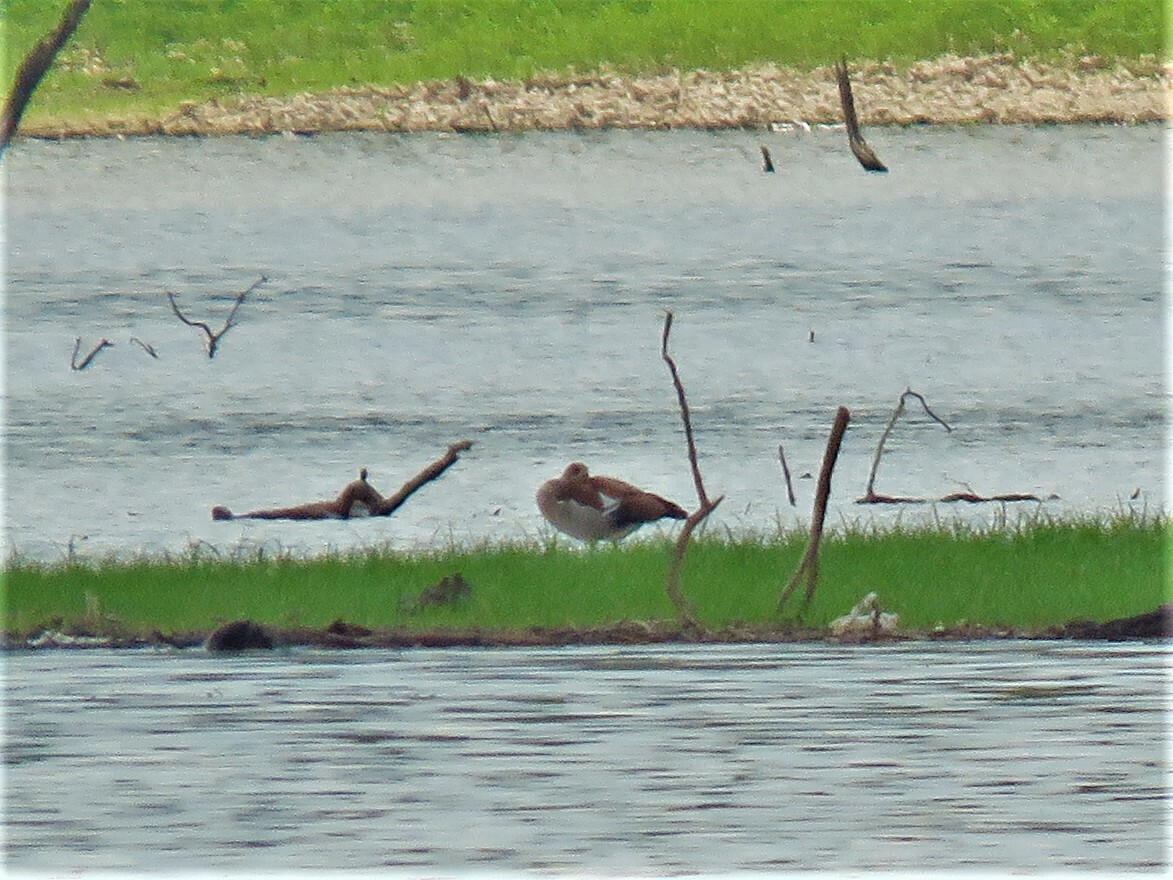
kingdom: Animalia
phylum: Chordata
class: Aves
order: Anseriformes
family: Anatidae
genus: Alopochen
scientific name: Alopochen aegyptiaca
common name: Egyptian goose
